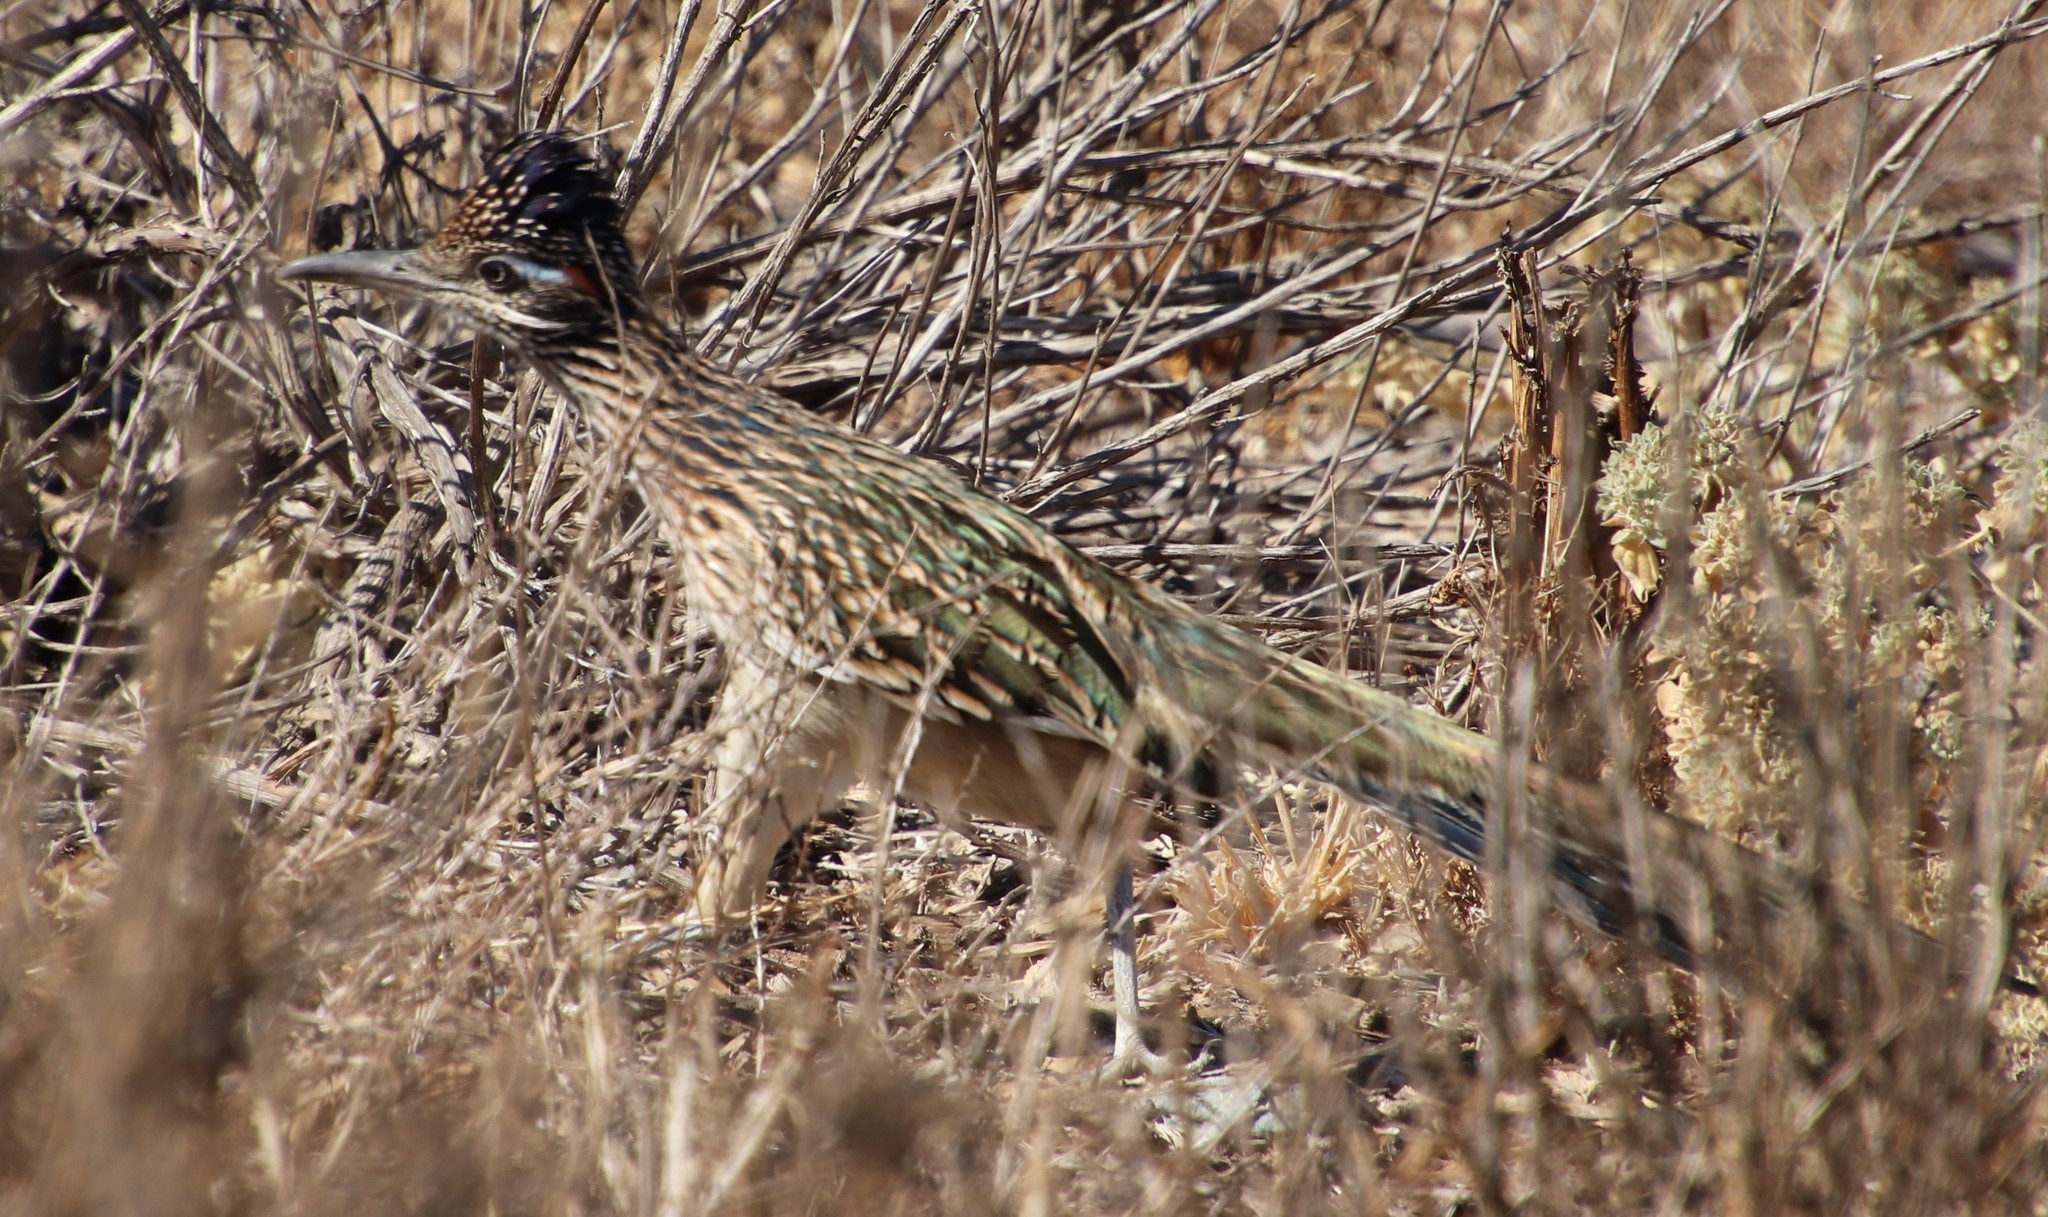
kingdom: Animalia
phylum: Chordata
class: Aves
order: Cuculiformes
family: Cuculidae
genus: Geococcyx
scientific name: Geococcyx californianus
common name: Greater roadrunner
